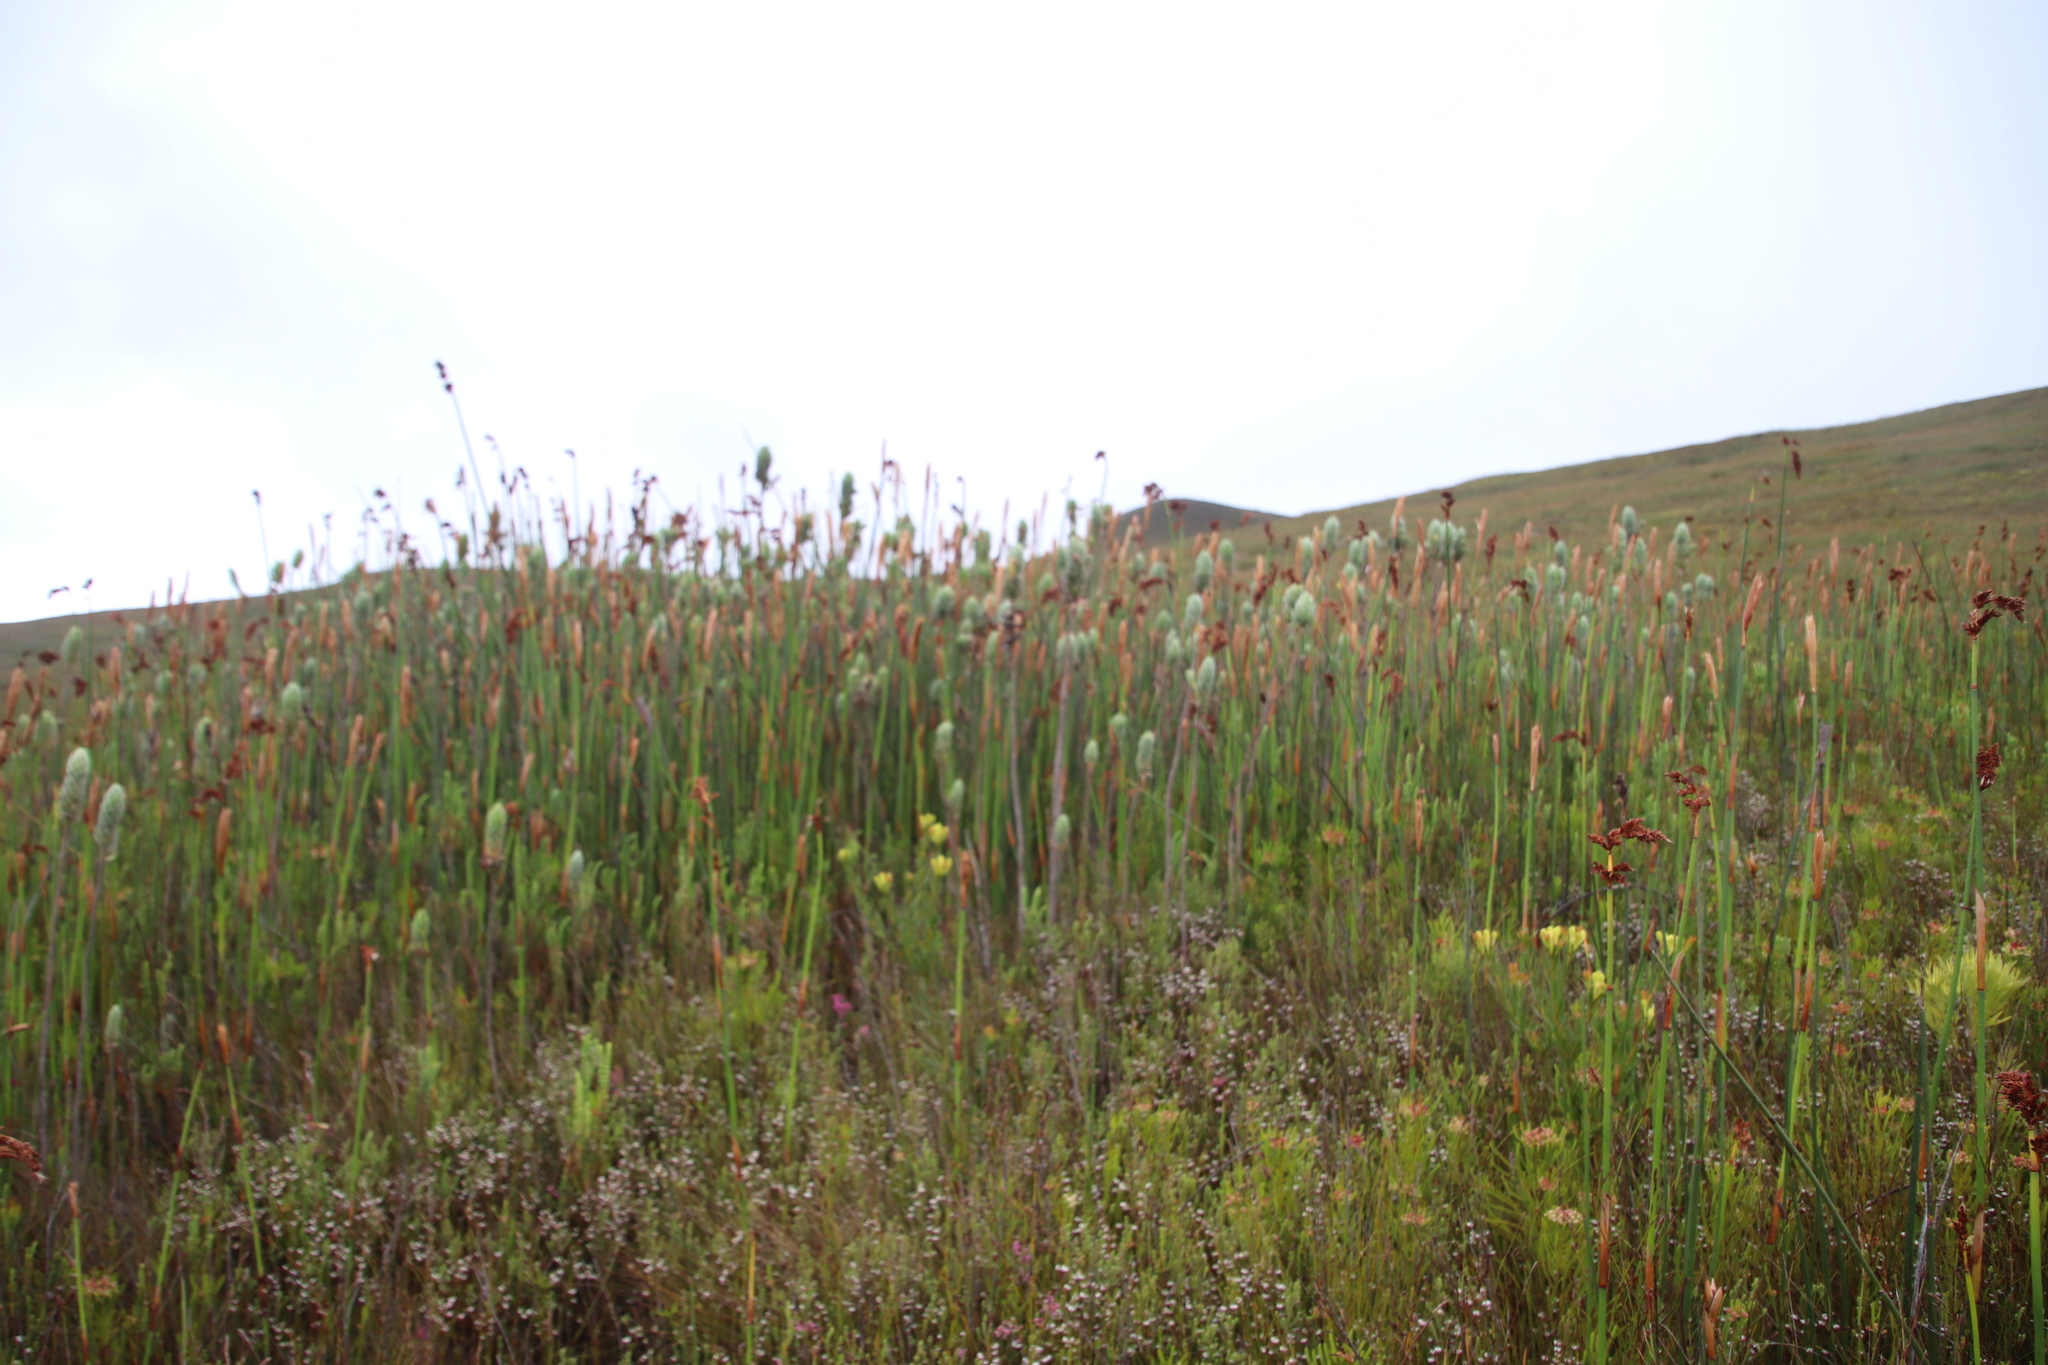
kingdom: Plantae
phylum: Tracheophyta
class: Liliopsida
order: Poales
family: Restionaceae
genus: Elegia
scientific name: Elegia mucronata
